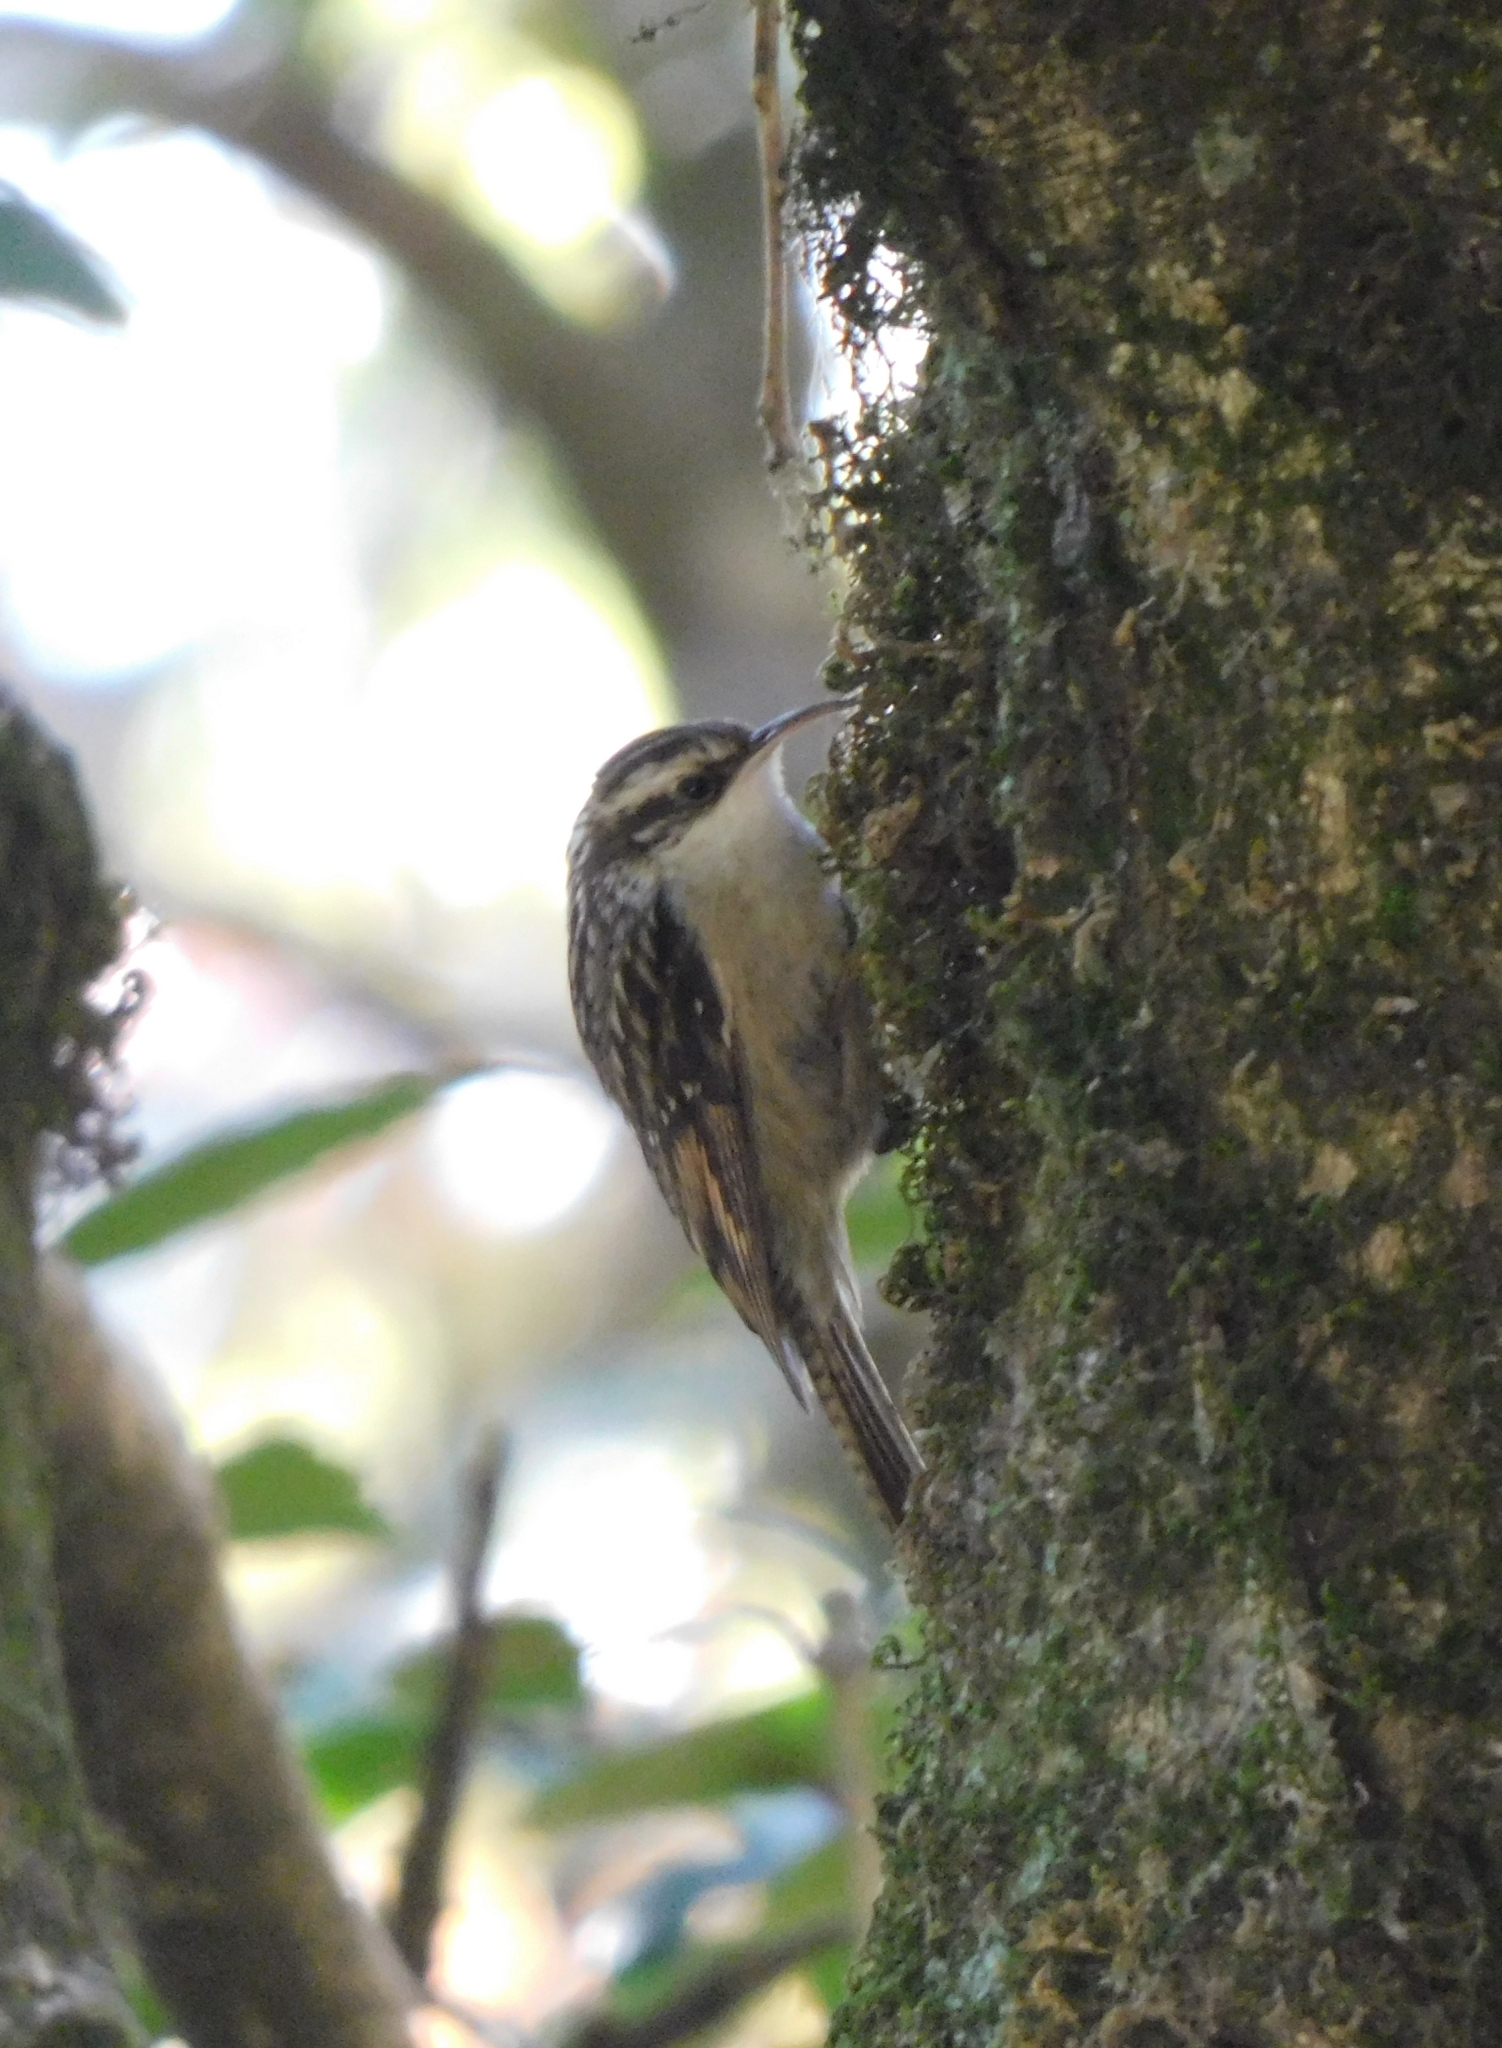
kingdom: Animalia
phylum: Chordata
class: Aves
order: Passeriformes
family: Certhiidae
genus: Certhia
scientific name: Certhia himalayana
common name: Bar-tailed treecreeper
